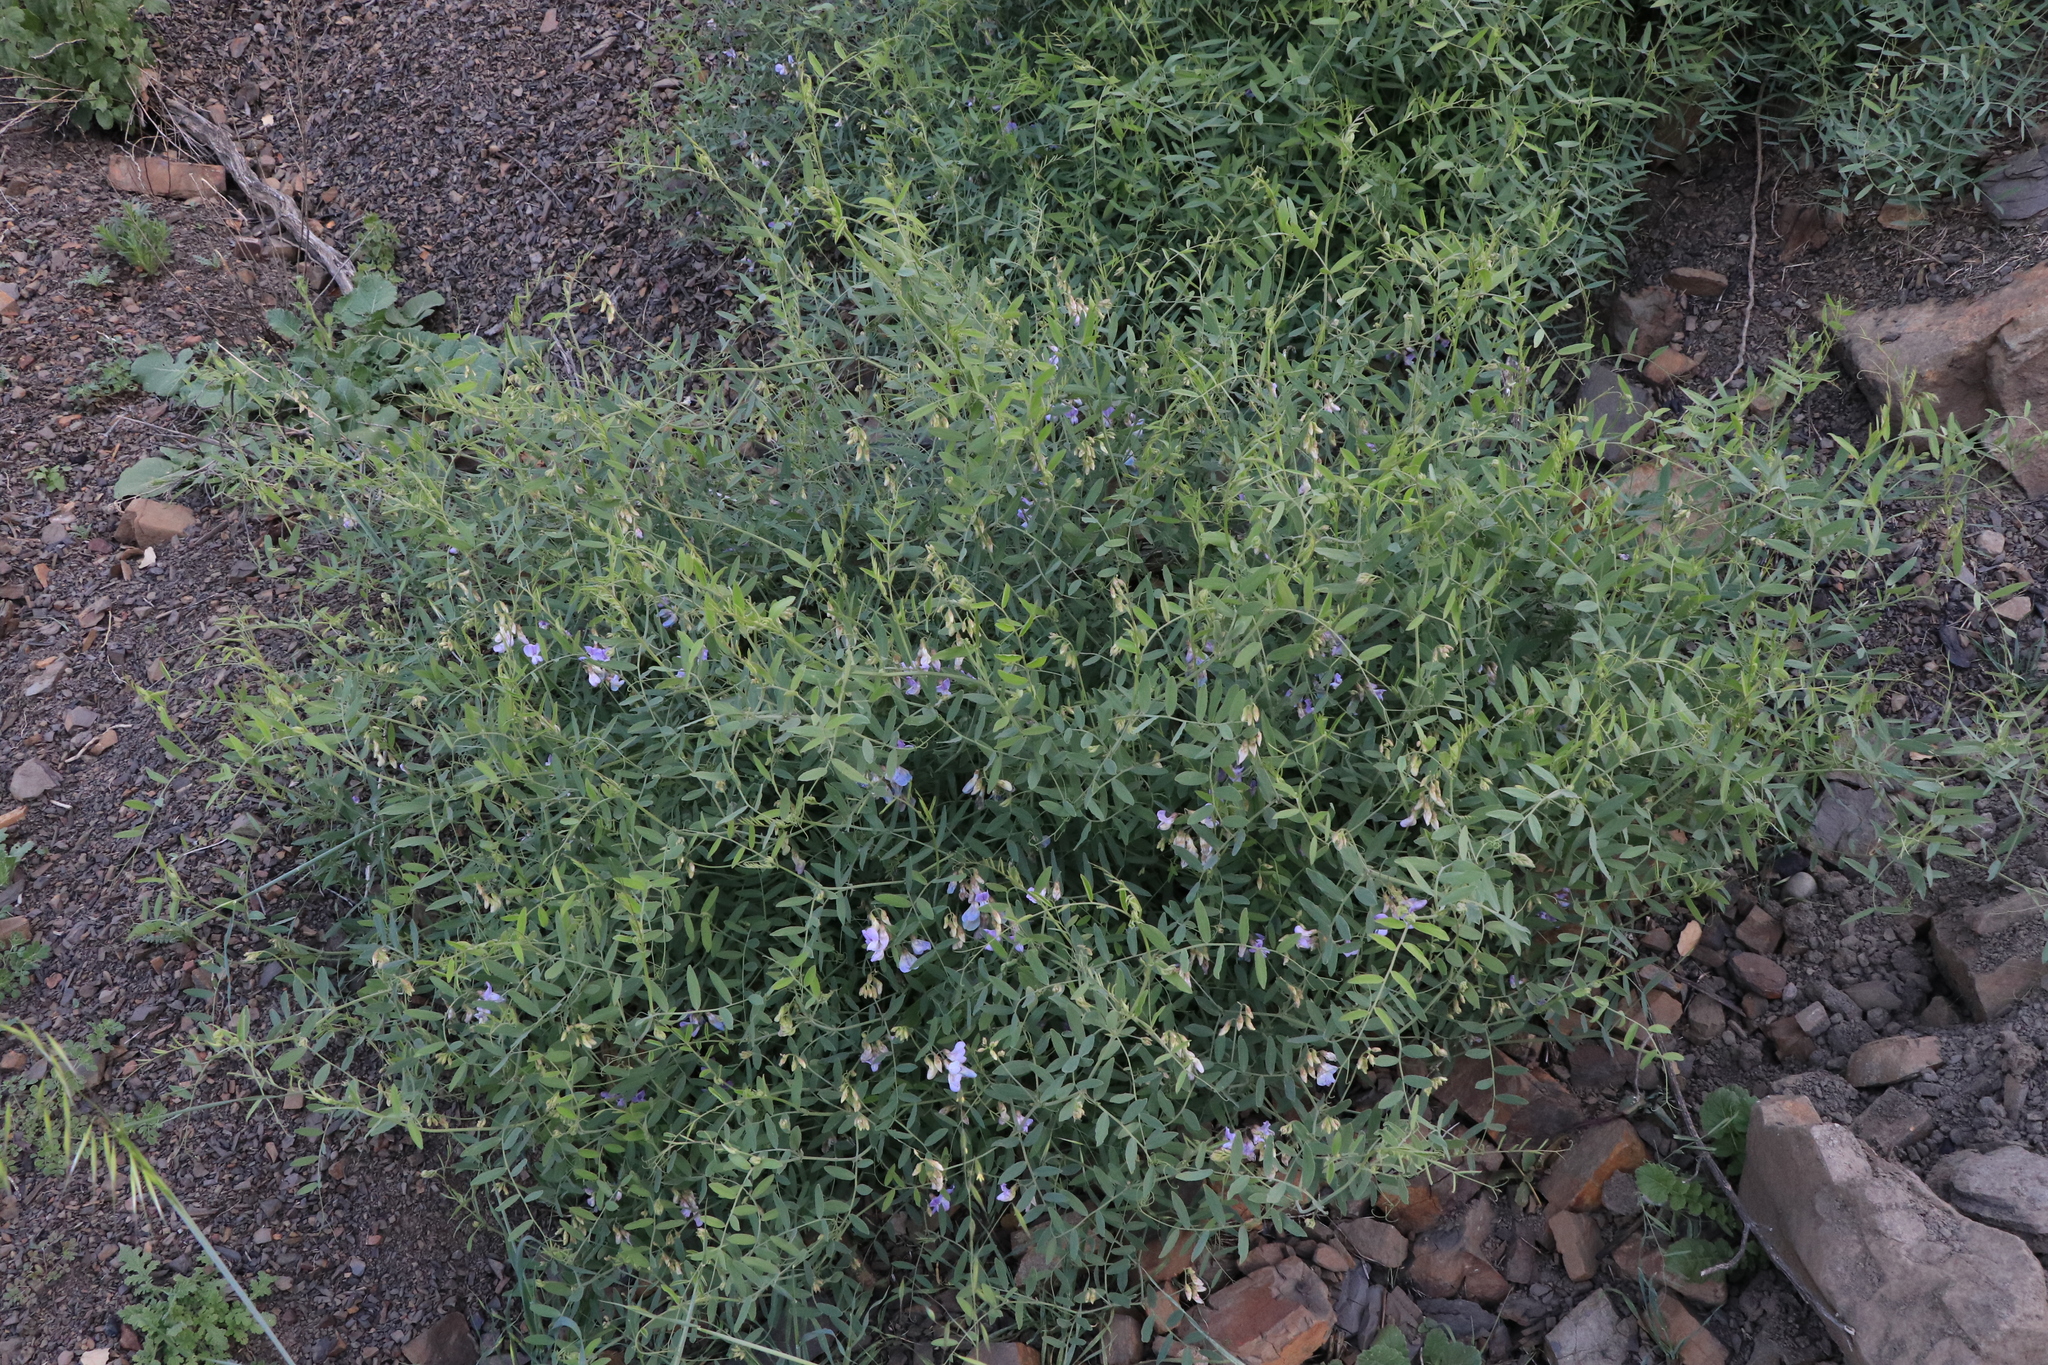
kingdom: Plantae
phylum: Tracheophyta
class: Magnoliopsida
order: Fabales
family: Fabaceae
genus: Lathyrus
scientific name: Lathyrus vestitus
